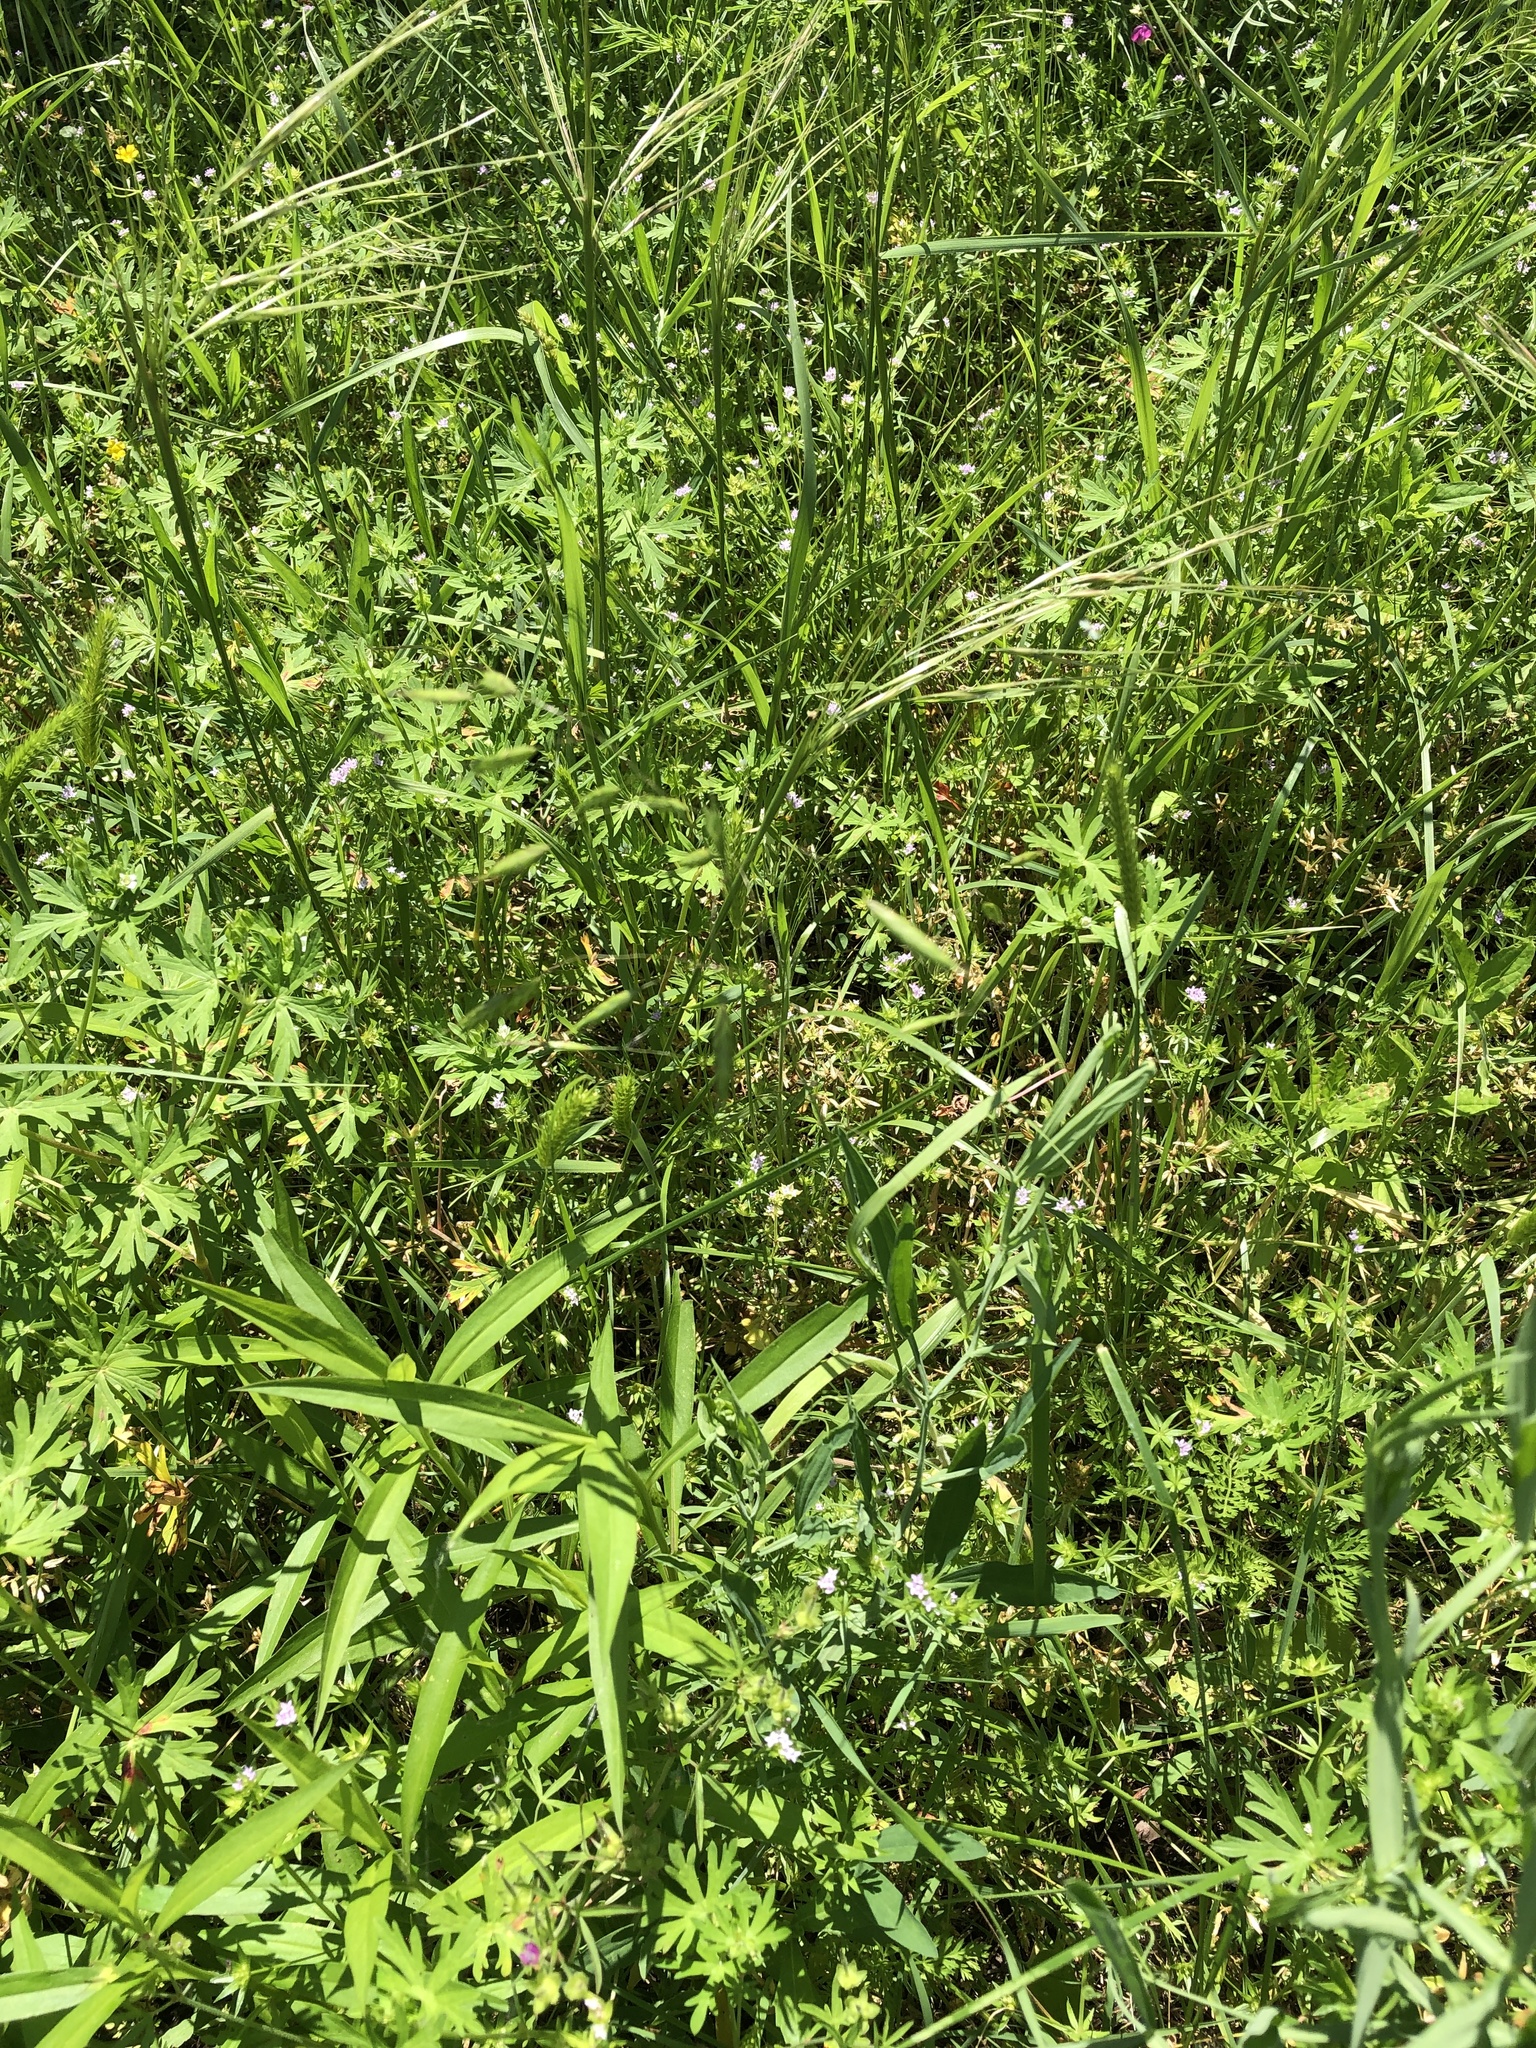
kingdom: Plantae
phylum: Tracheophyta
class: Liliopsida
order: Poales
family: Poaceae
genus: Bromus
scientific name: Bromus japonicus
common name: Japanese brome
